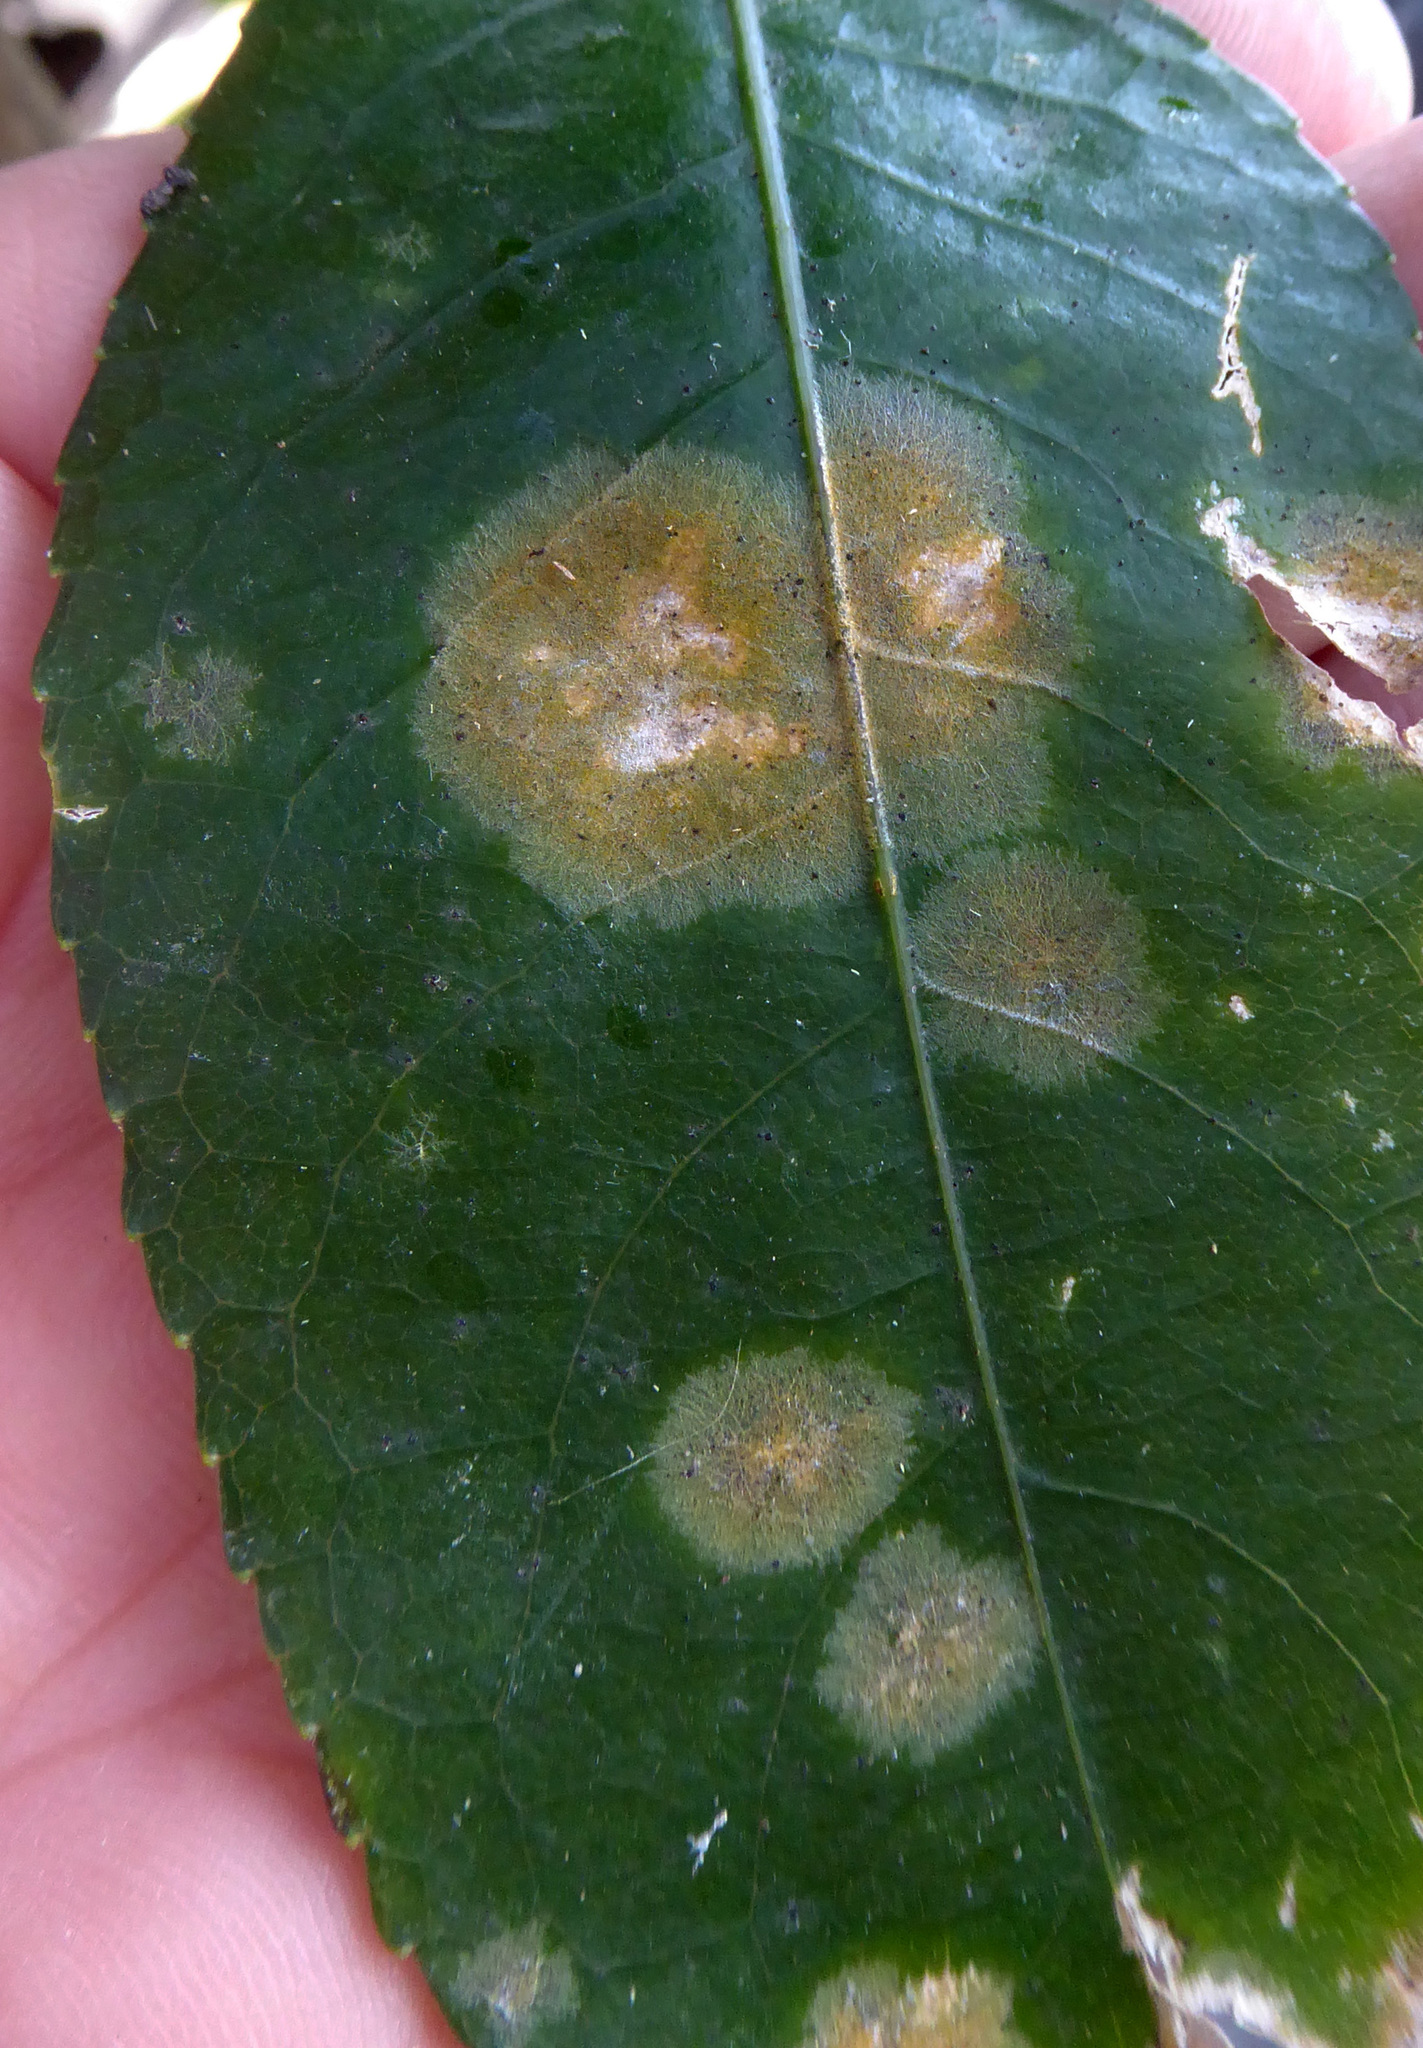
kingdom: Plantae
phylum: Chlorophyta
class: Ulvophyceae
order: Trentepohliales
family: Trentepohliaceae
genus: Cephaleuros
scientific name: Cephaleuros
